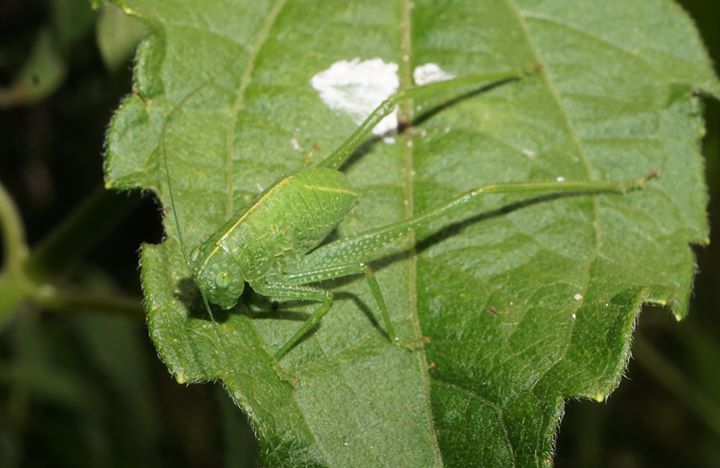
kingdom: Animalia
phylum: Arthropoda
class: Insecta
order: Orthoptera
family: Tettigoniidae
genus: Microcentrum
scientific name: Microcentrum rhombifolium
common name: Broad-winged katydid
